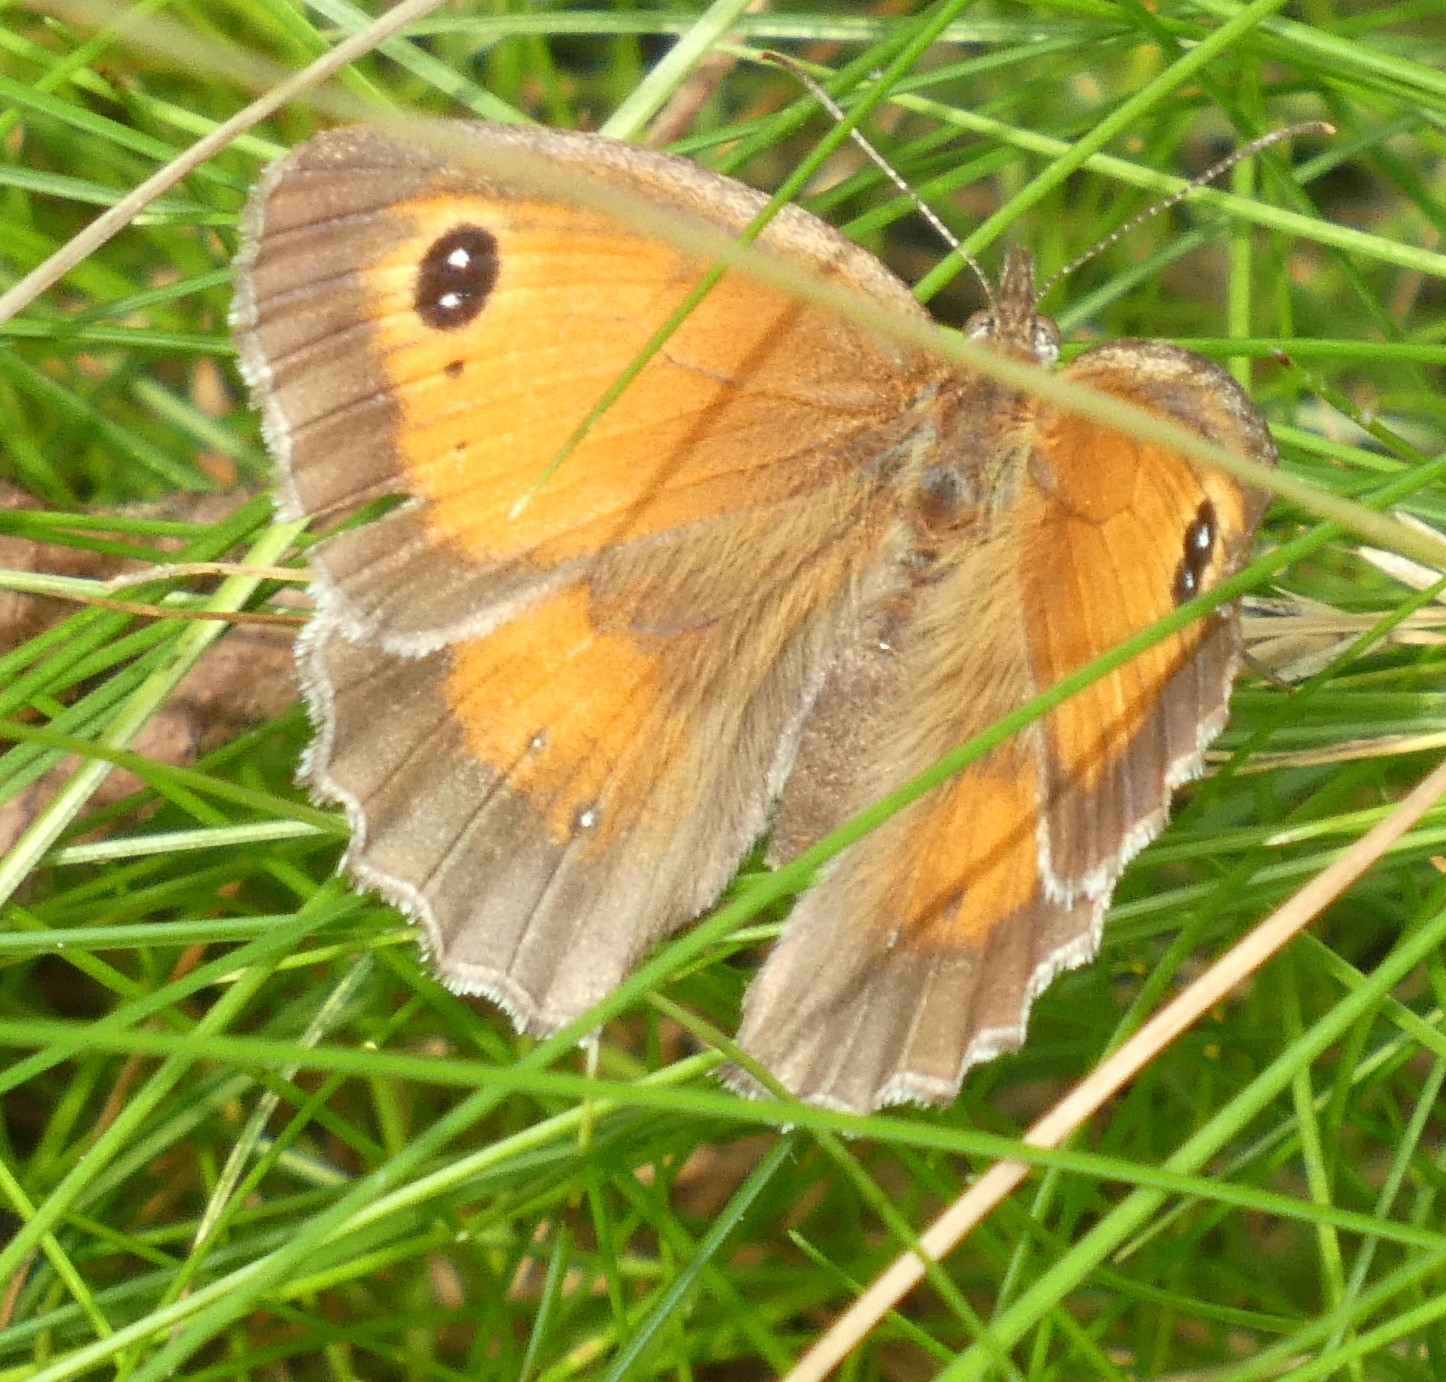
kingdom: Animalia
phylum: Arthropoda
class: Insecta
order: Lepidoptera
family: Nymphalidae
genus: Pyronia
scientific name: Pyronia tithonus
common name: Gatekeeper
